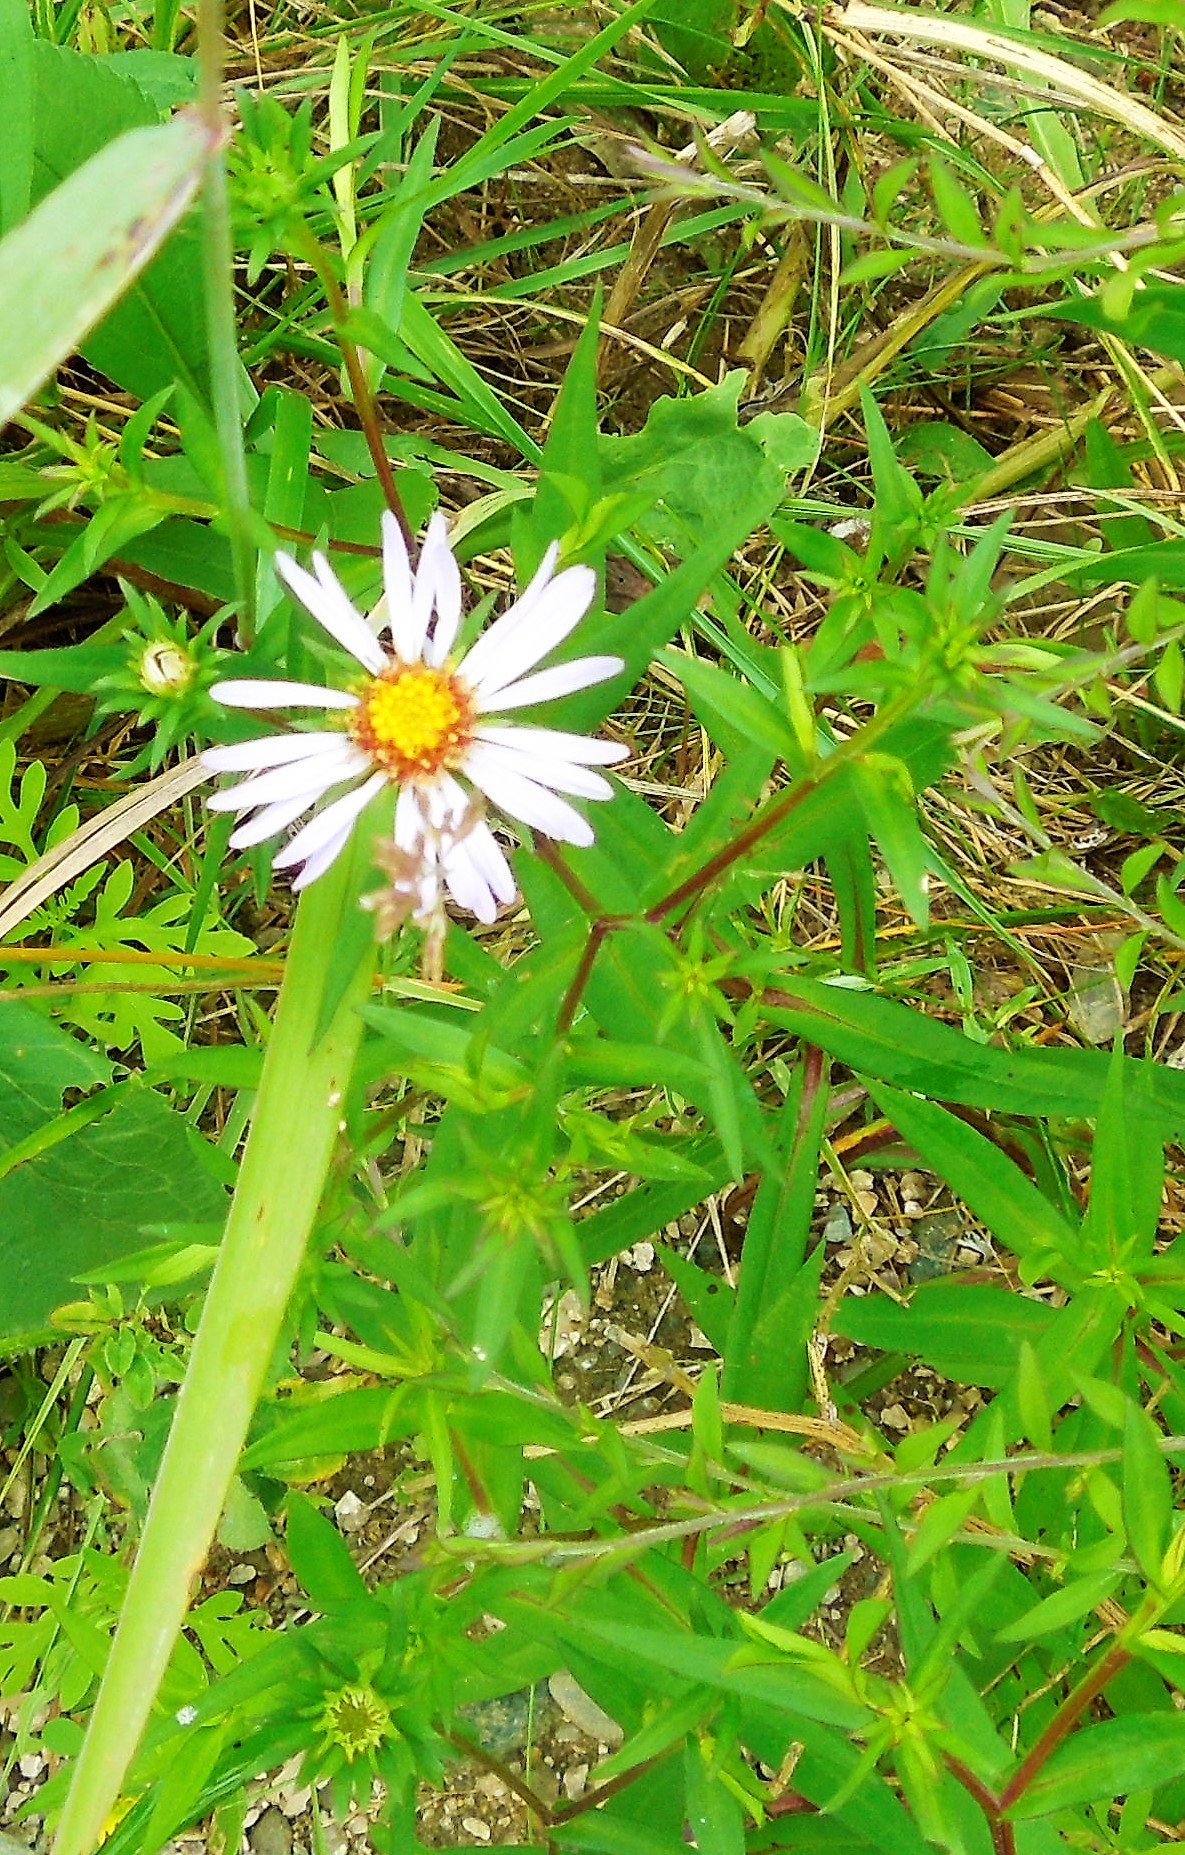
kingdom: Plantae
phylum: Tracheophyta
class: Magnoliopsida
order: Asterales
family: Asteraceae
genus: Symphyotrichum
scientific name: Symphyotrichum novi-belgii
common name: Michaelmas daisy
